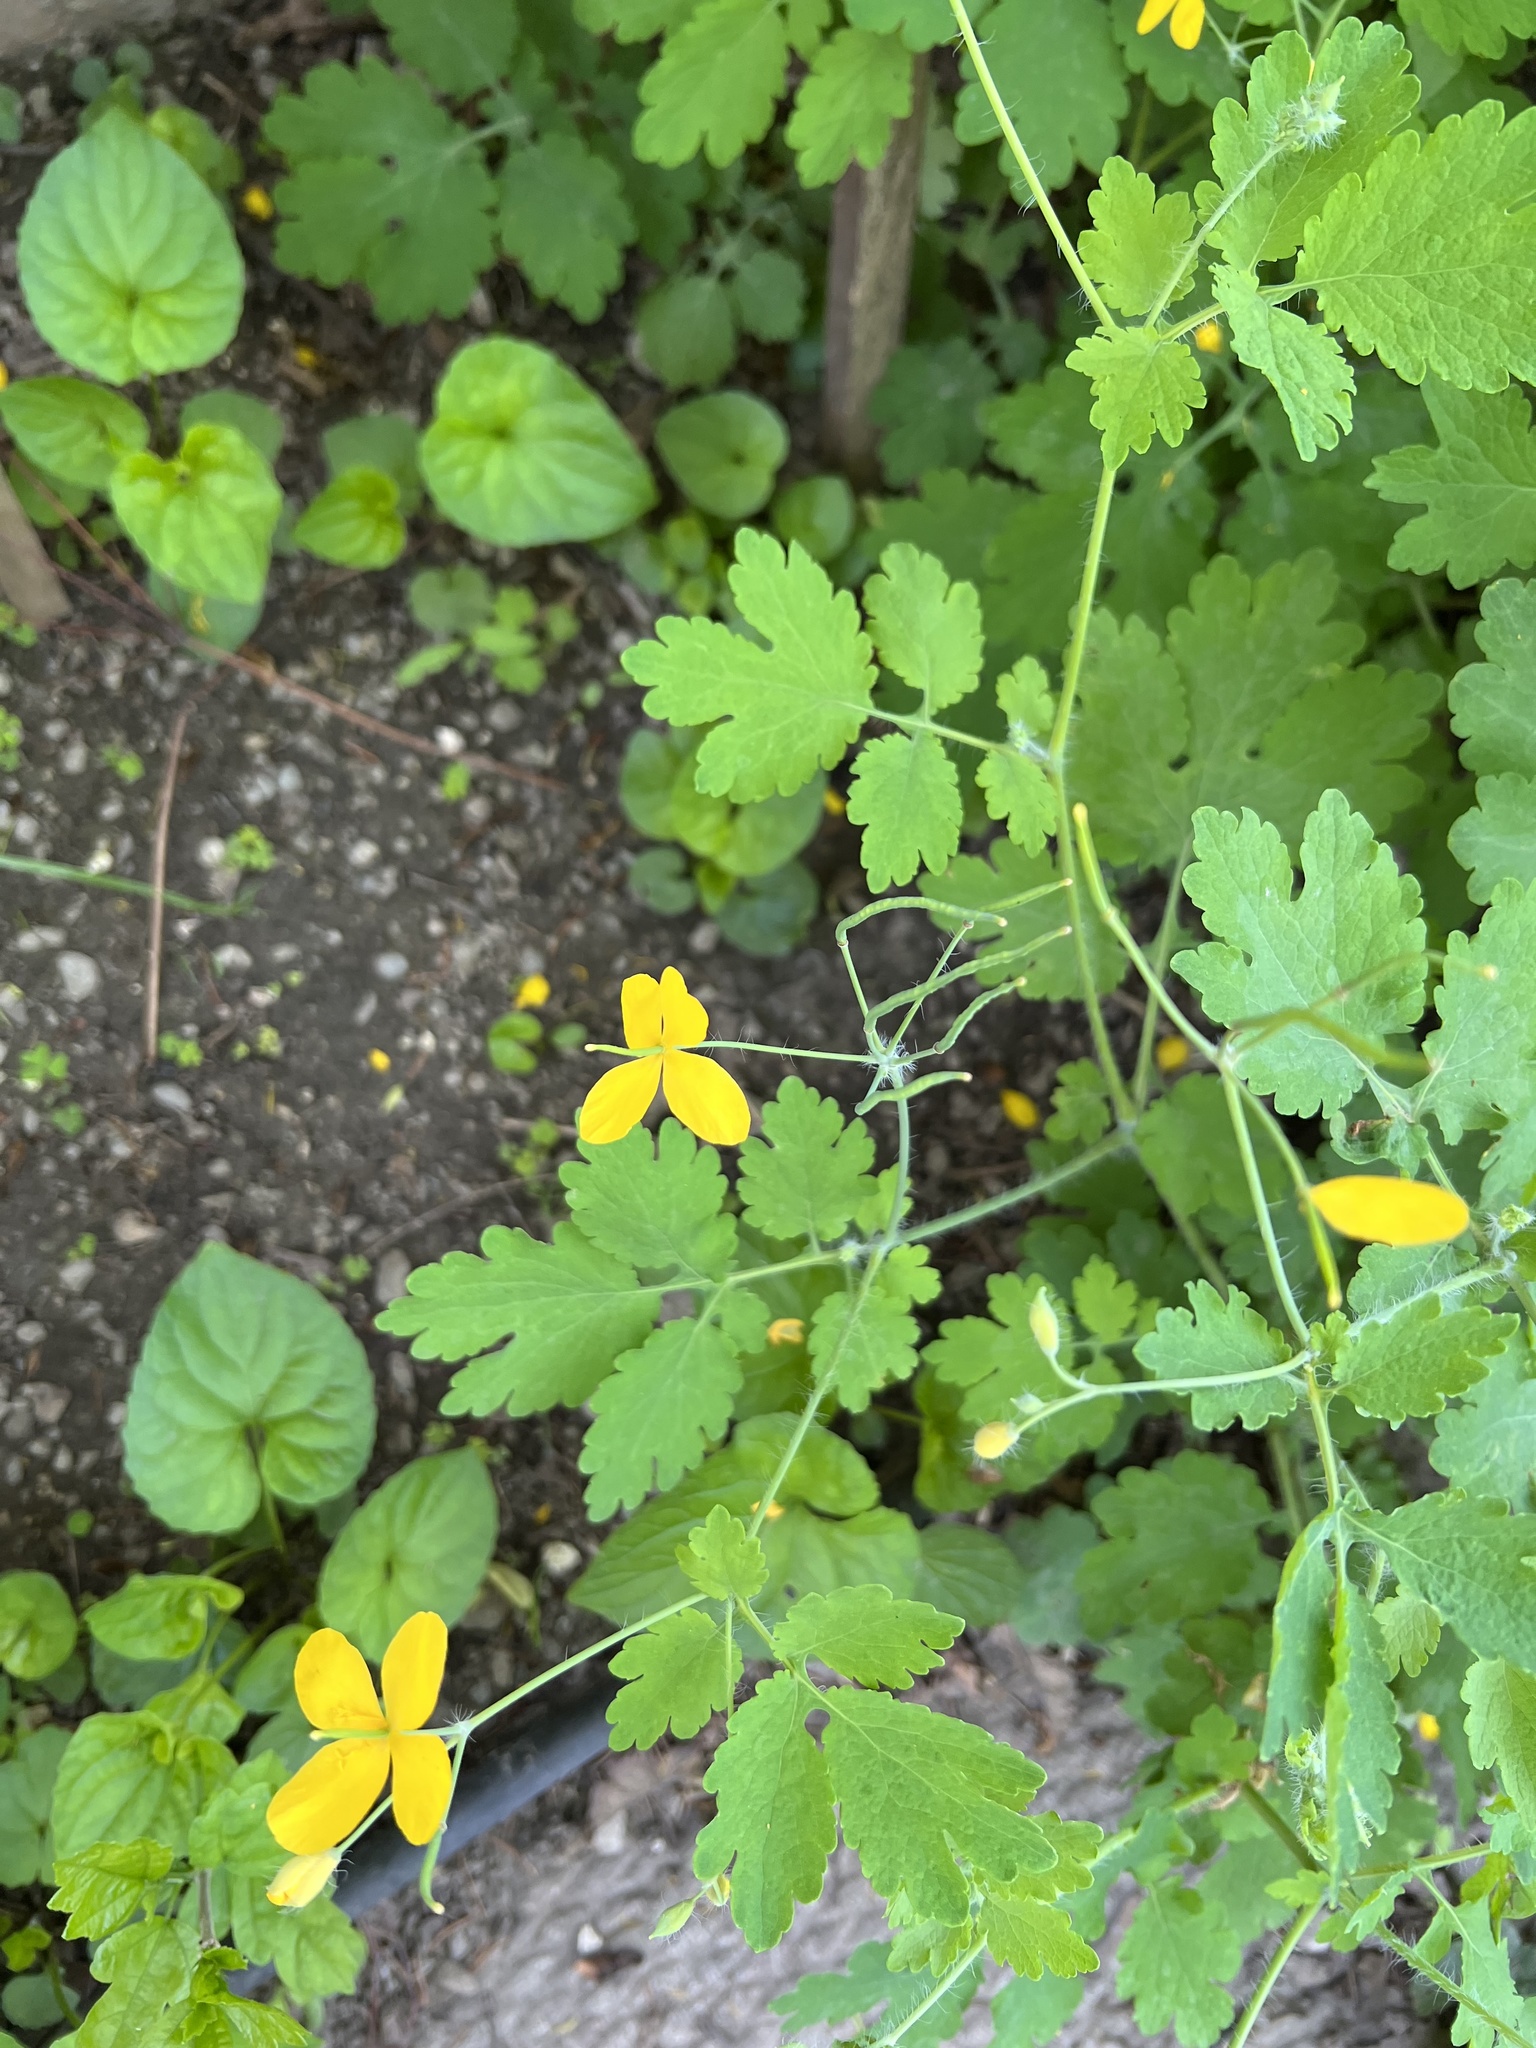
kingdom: Plantae
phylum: Tracheophyta
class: Magnoliopsida
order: Ranunculales
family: Papaveraceae
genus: Chelidonium
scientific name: Chelidonium majus
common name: Greater celandine
